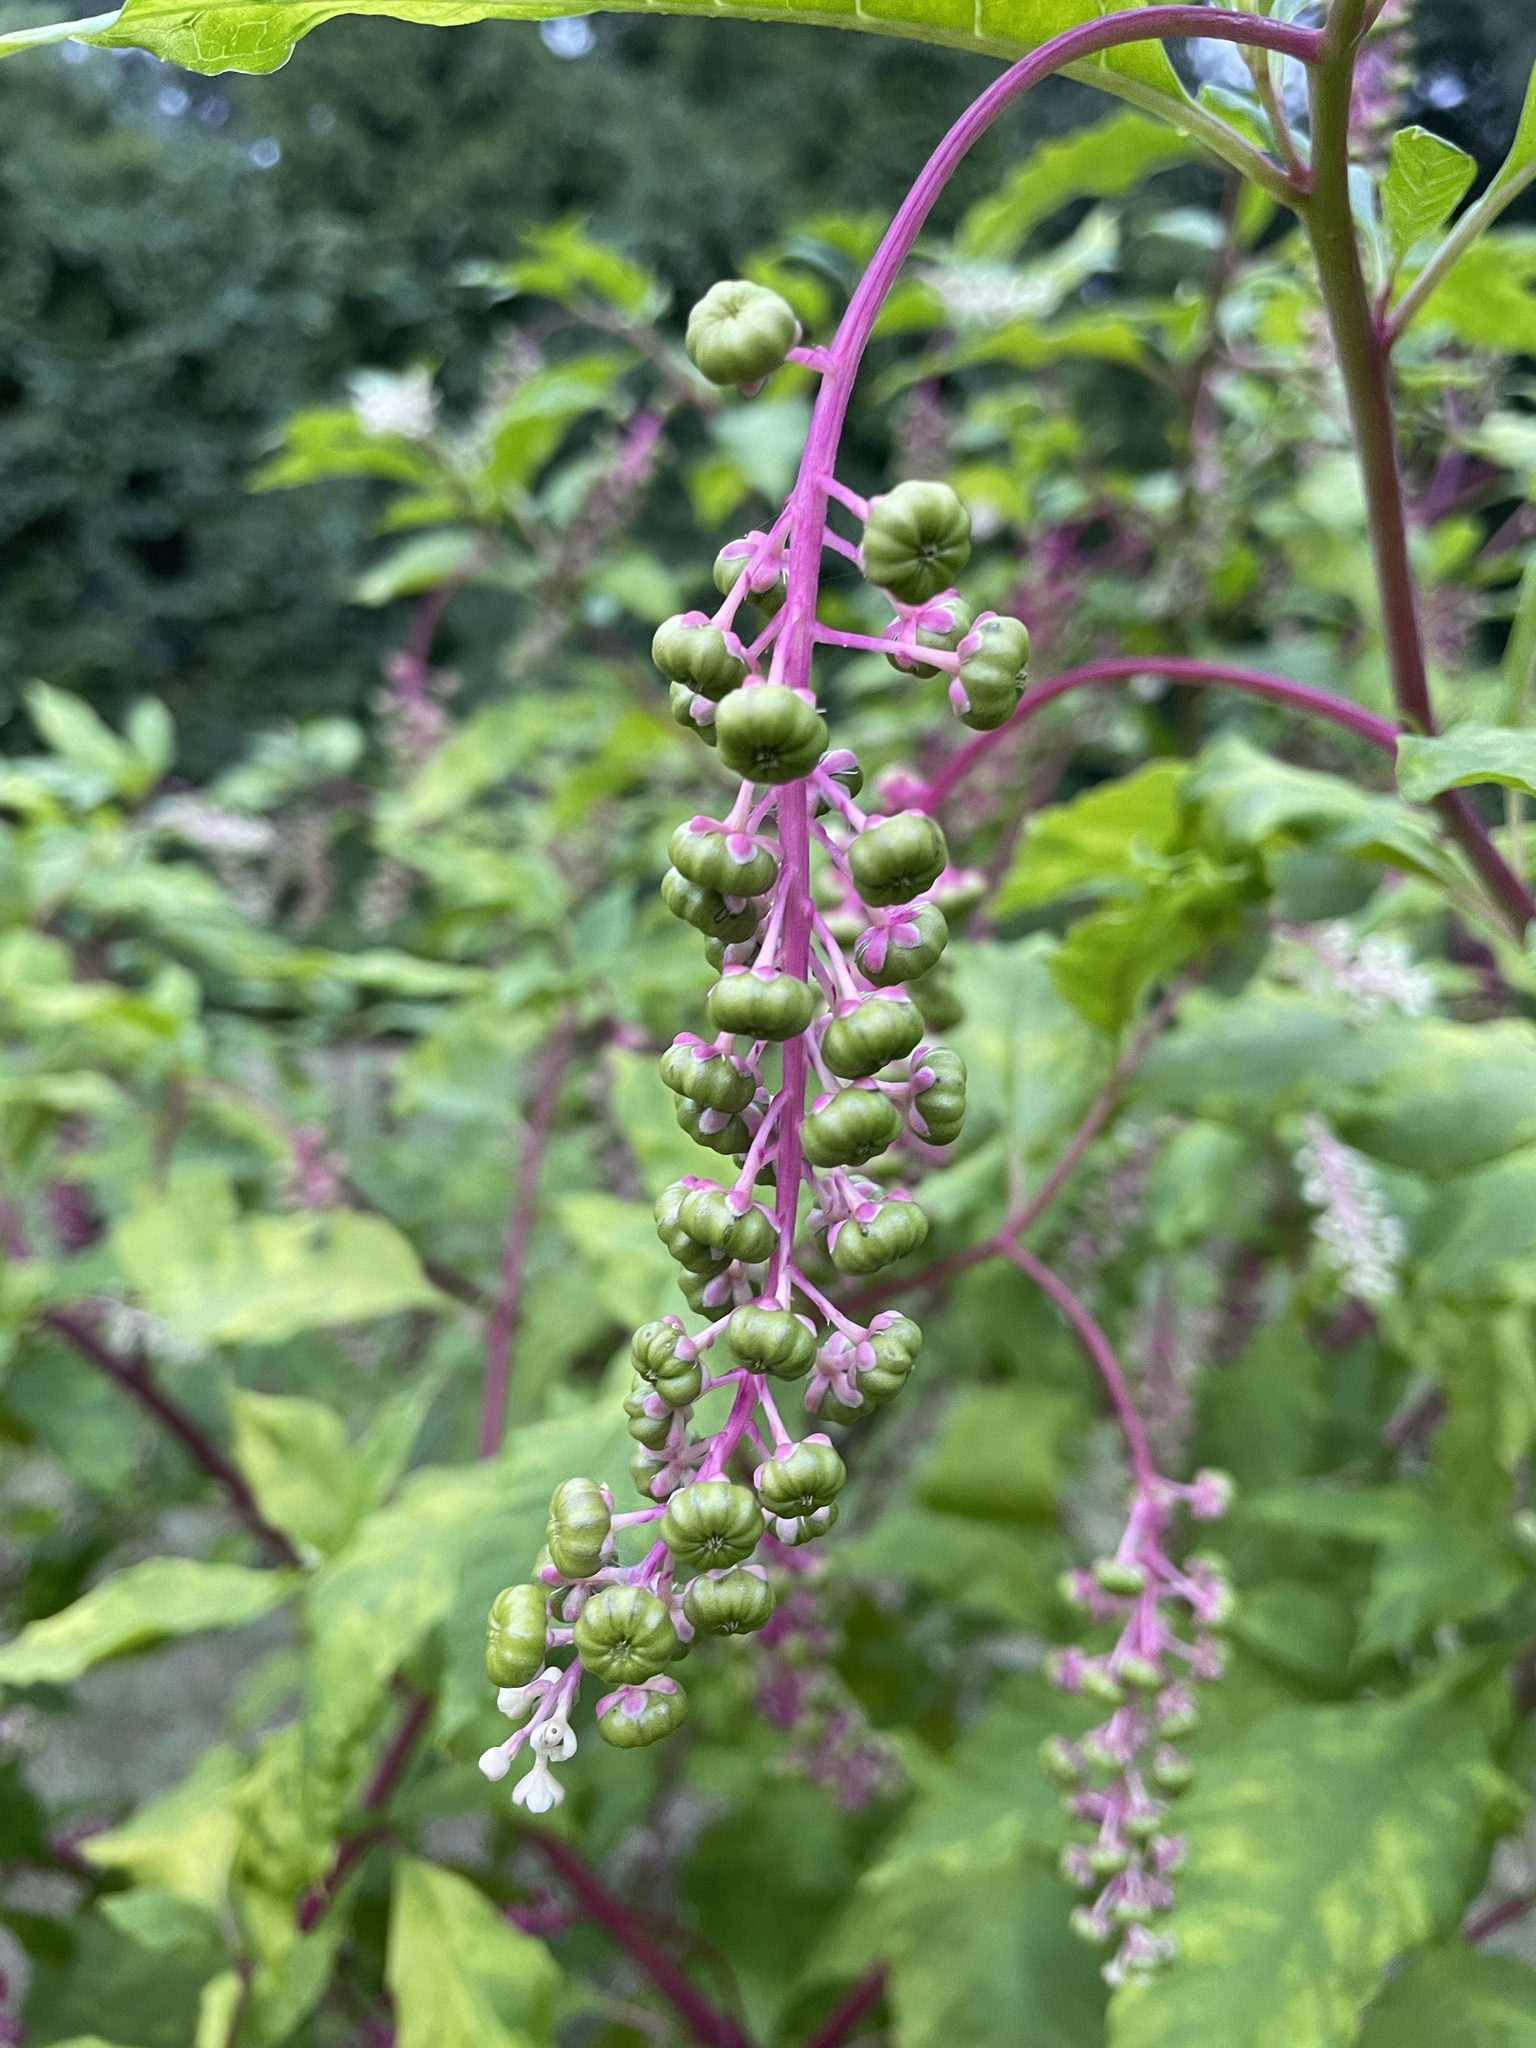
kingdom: Plantae
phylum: Tracheophyta
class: Magnoliopsida
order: Caryophyllales
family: Phytolaccaceae
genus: Phytolacca
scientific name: Phytolacca americana
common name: American pokeweed
